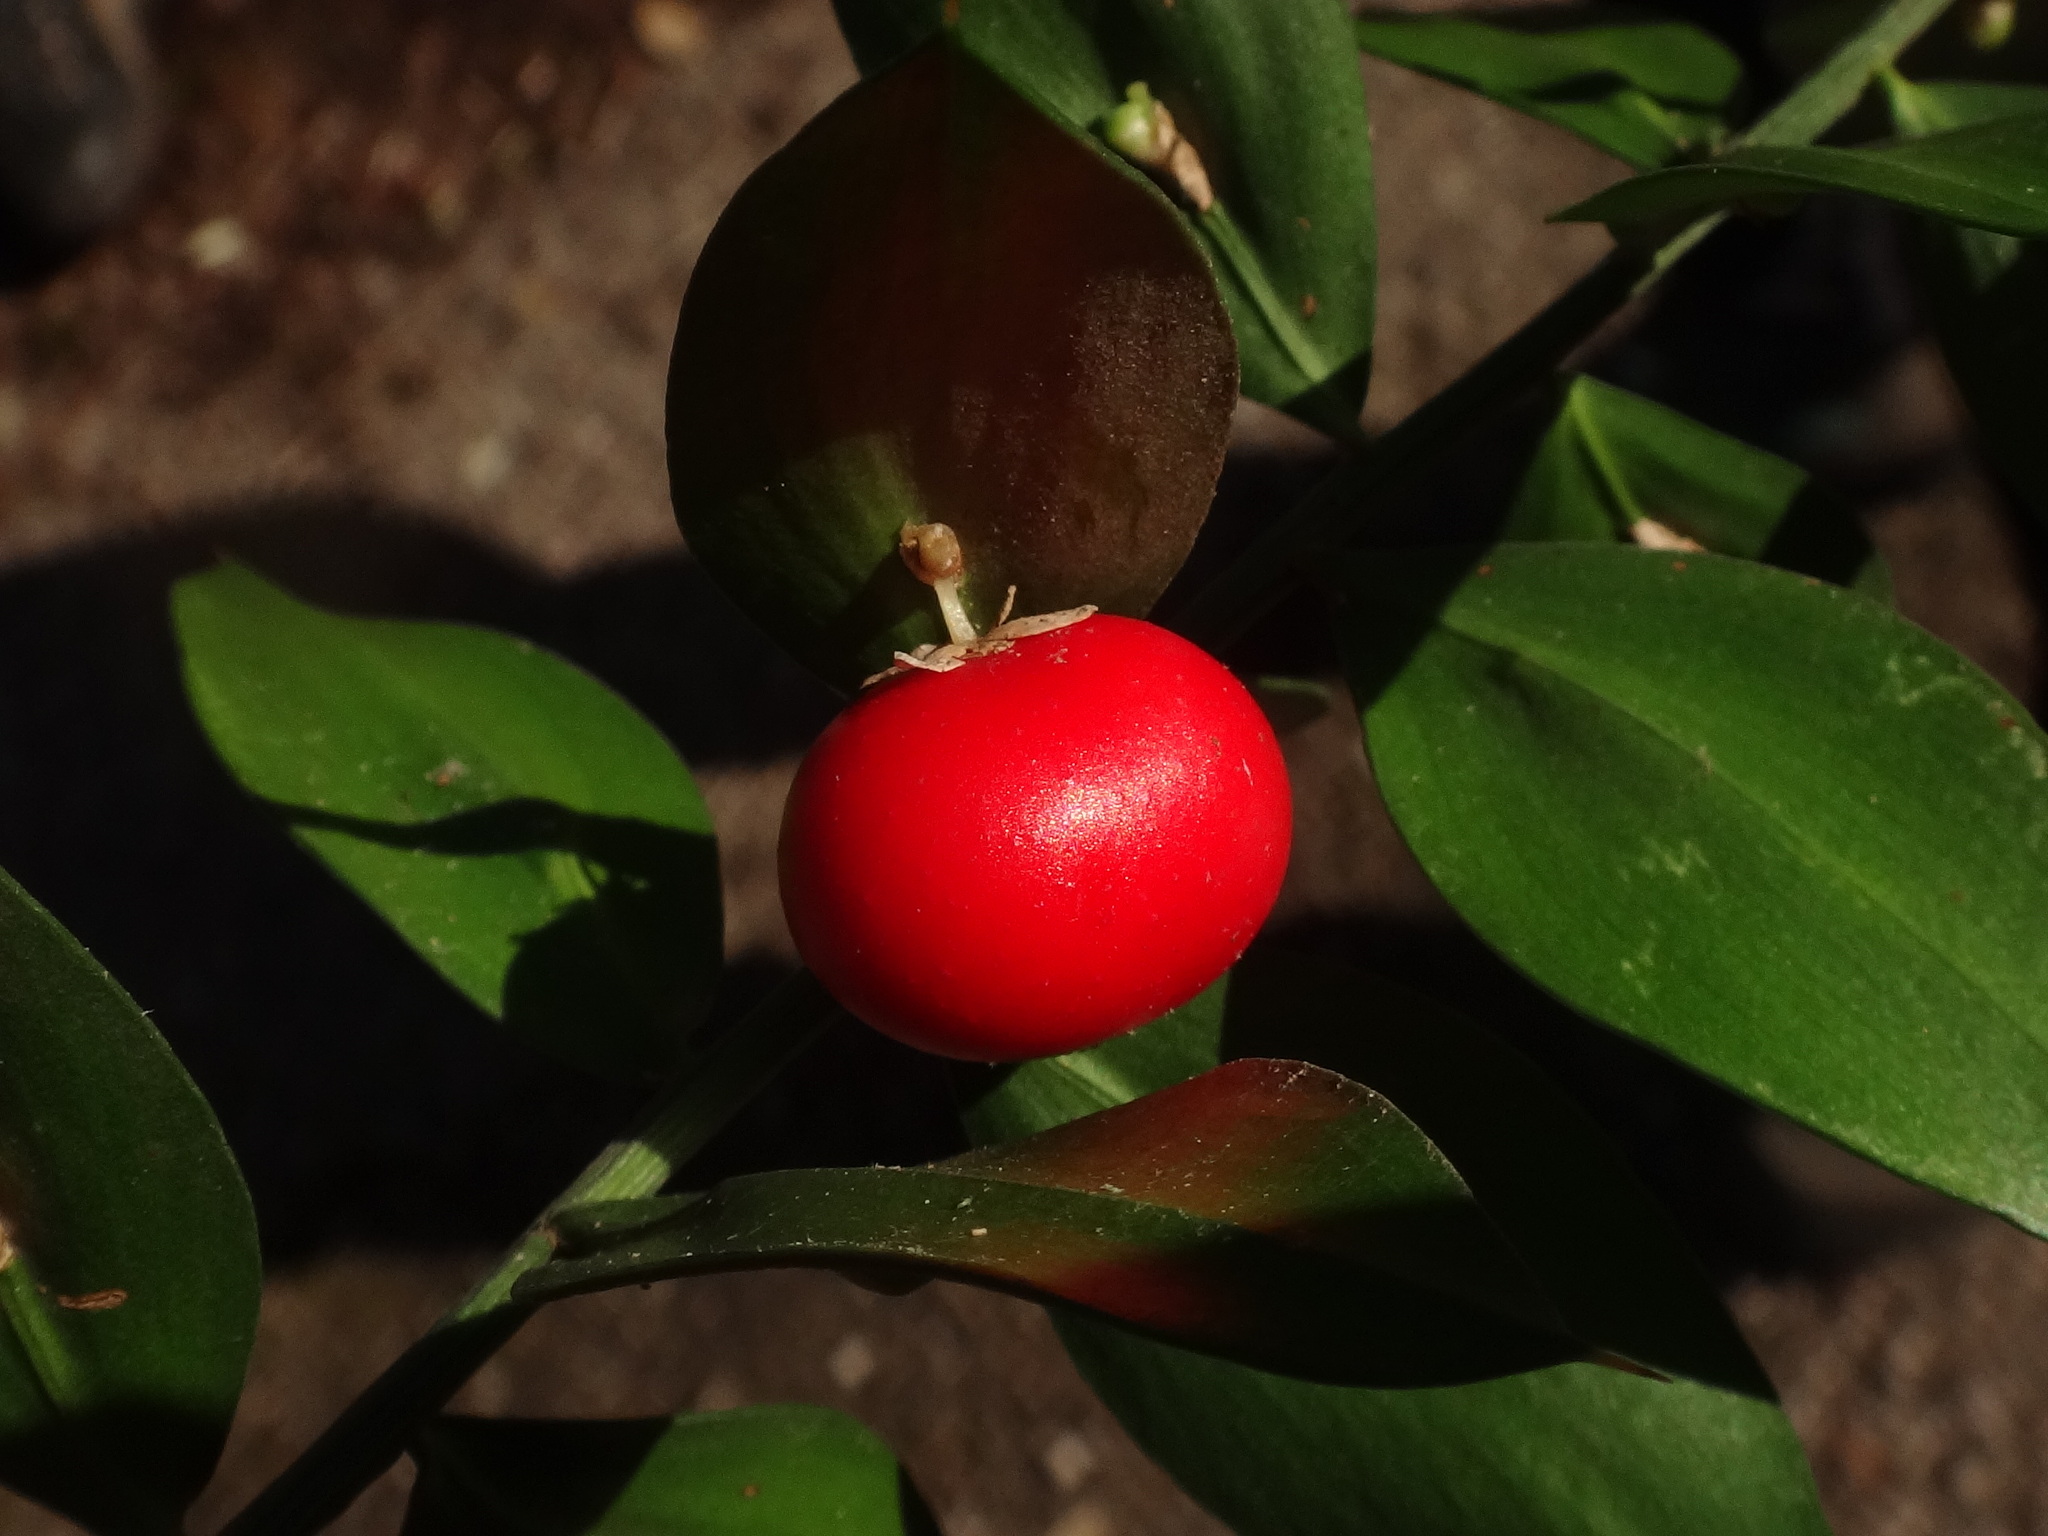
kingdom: Plantae
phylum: Tracheophyta
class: Liliopsida
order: Asparagales
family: Asparagaceae
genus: Ruscus
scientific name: Ruscus aculeatus
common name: Butcher's-broom
